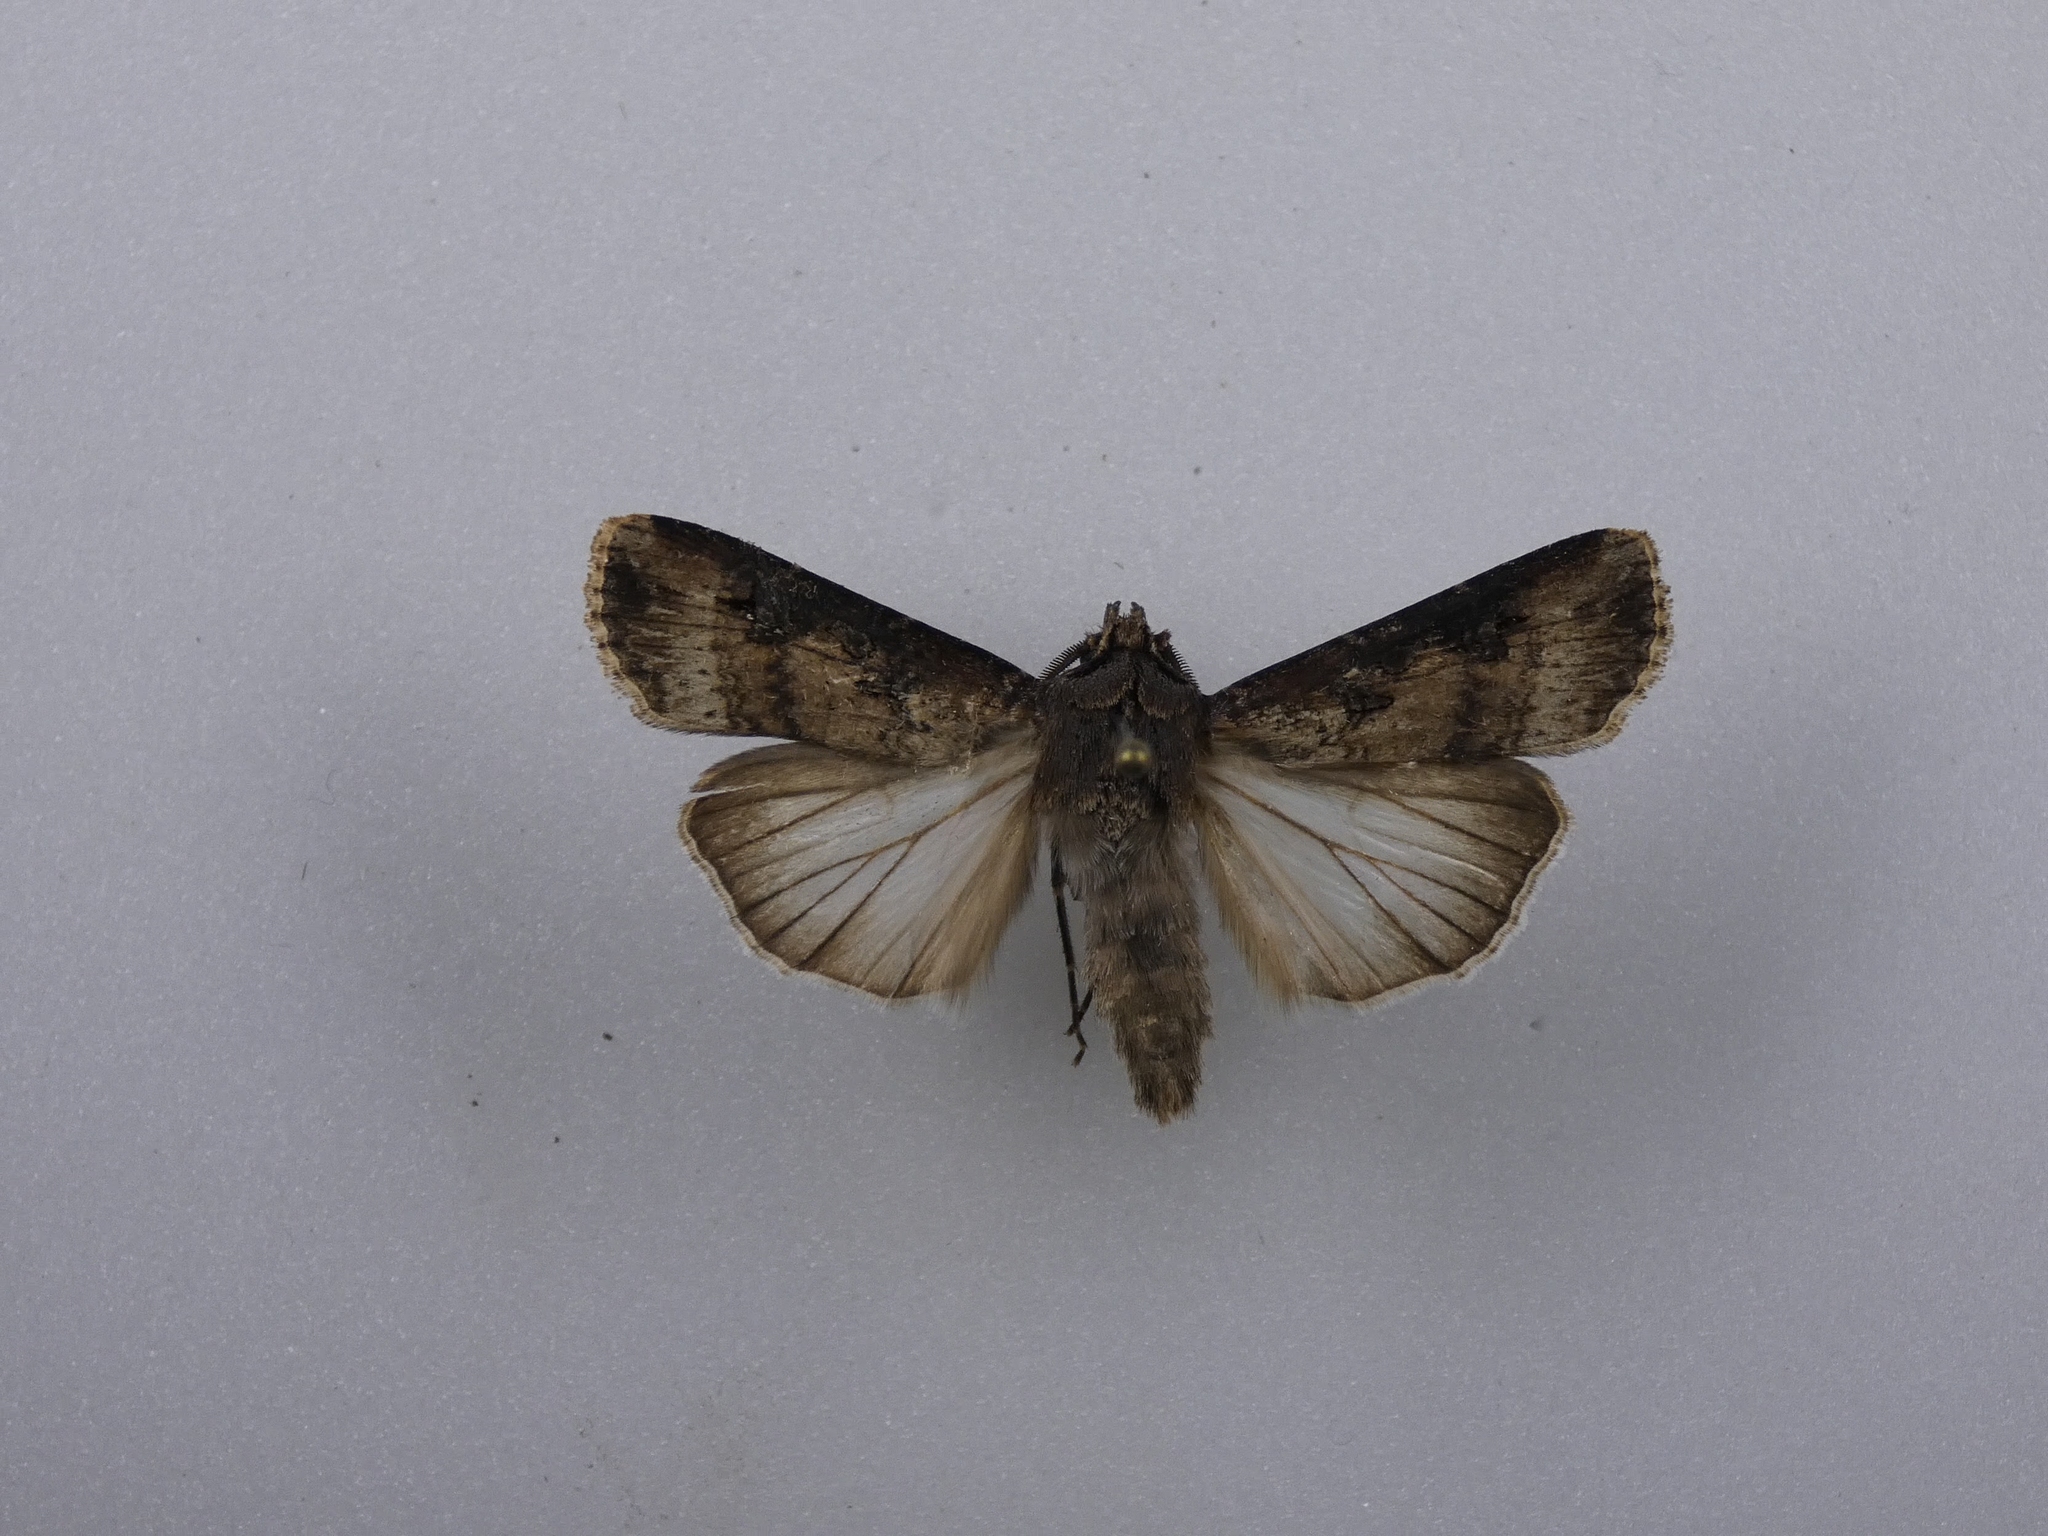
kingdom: Animalia
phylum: Arthropoda
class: Insecta
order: Lepidoptera
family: Noctuidae
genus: Agrotis
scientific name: Agrotis ipsilon
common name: Dark sword-grass
